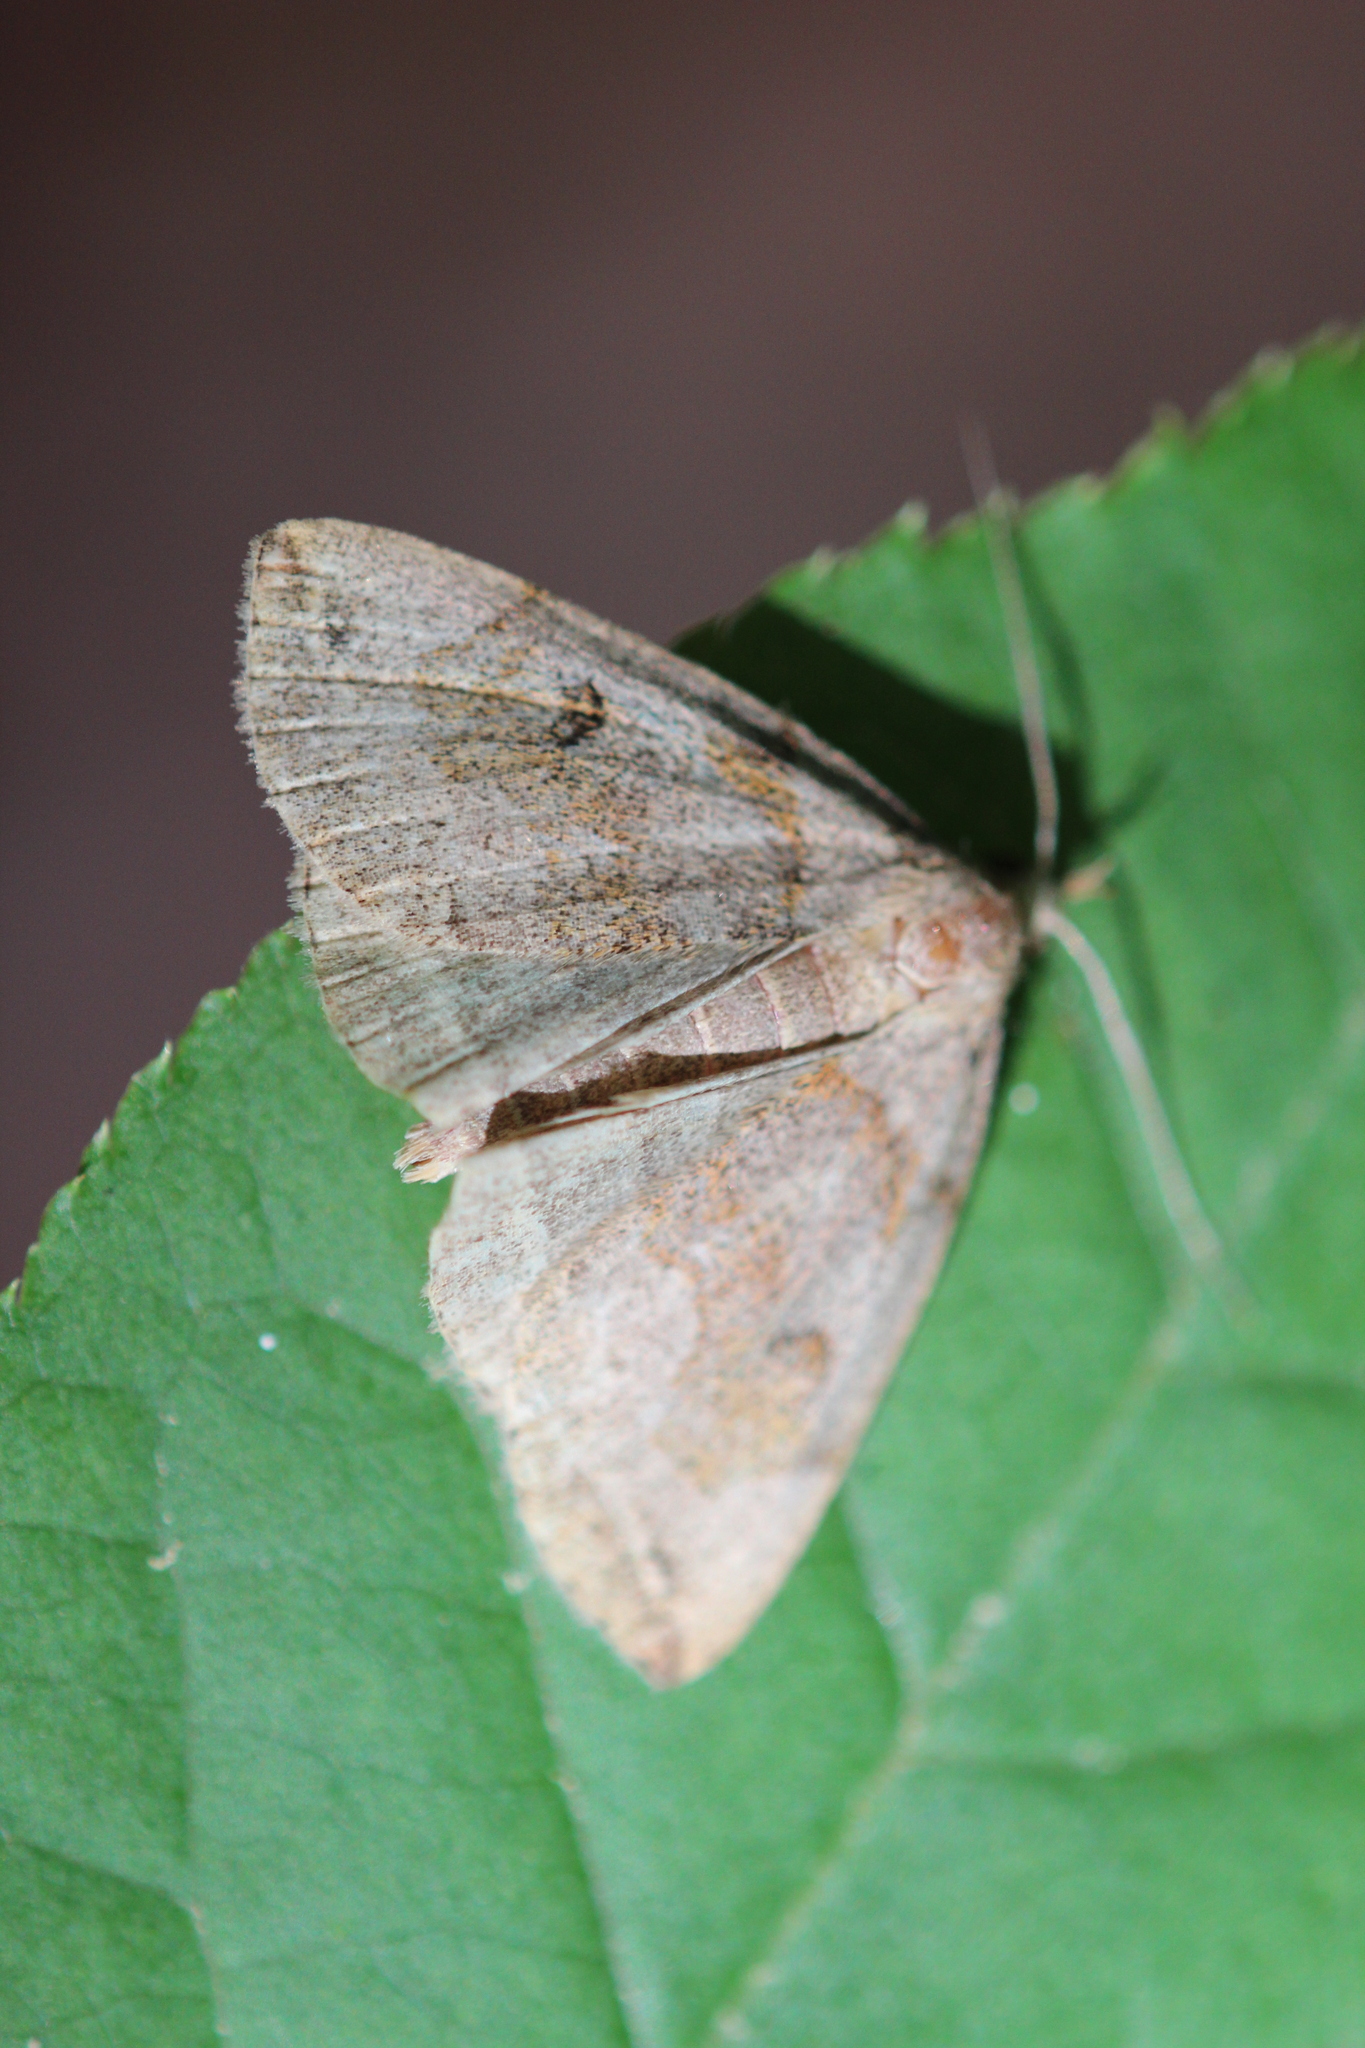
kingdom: Animalia
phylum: Arthropoda
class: Insecta
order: Lepidoptera
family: Erebidae
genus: Zanclognatha
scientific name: Zanclognatha laevigata
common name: Variable fan-foot
